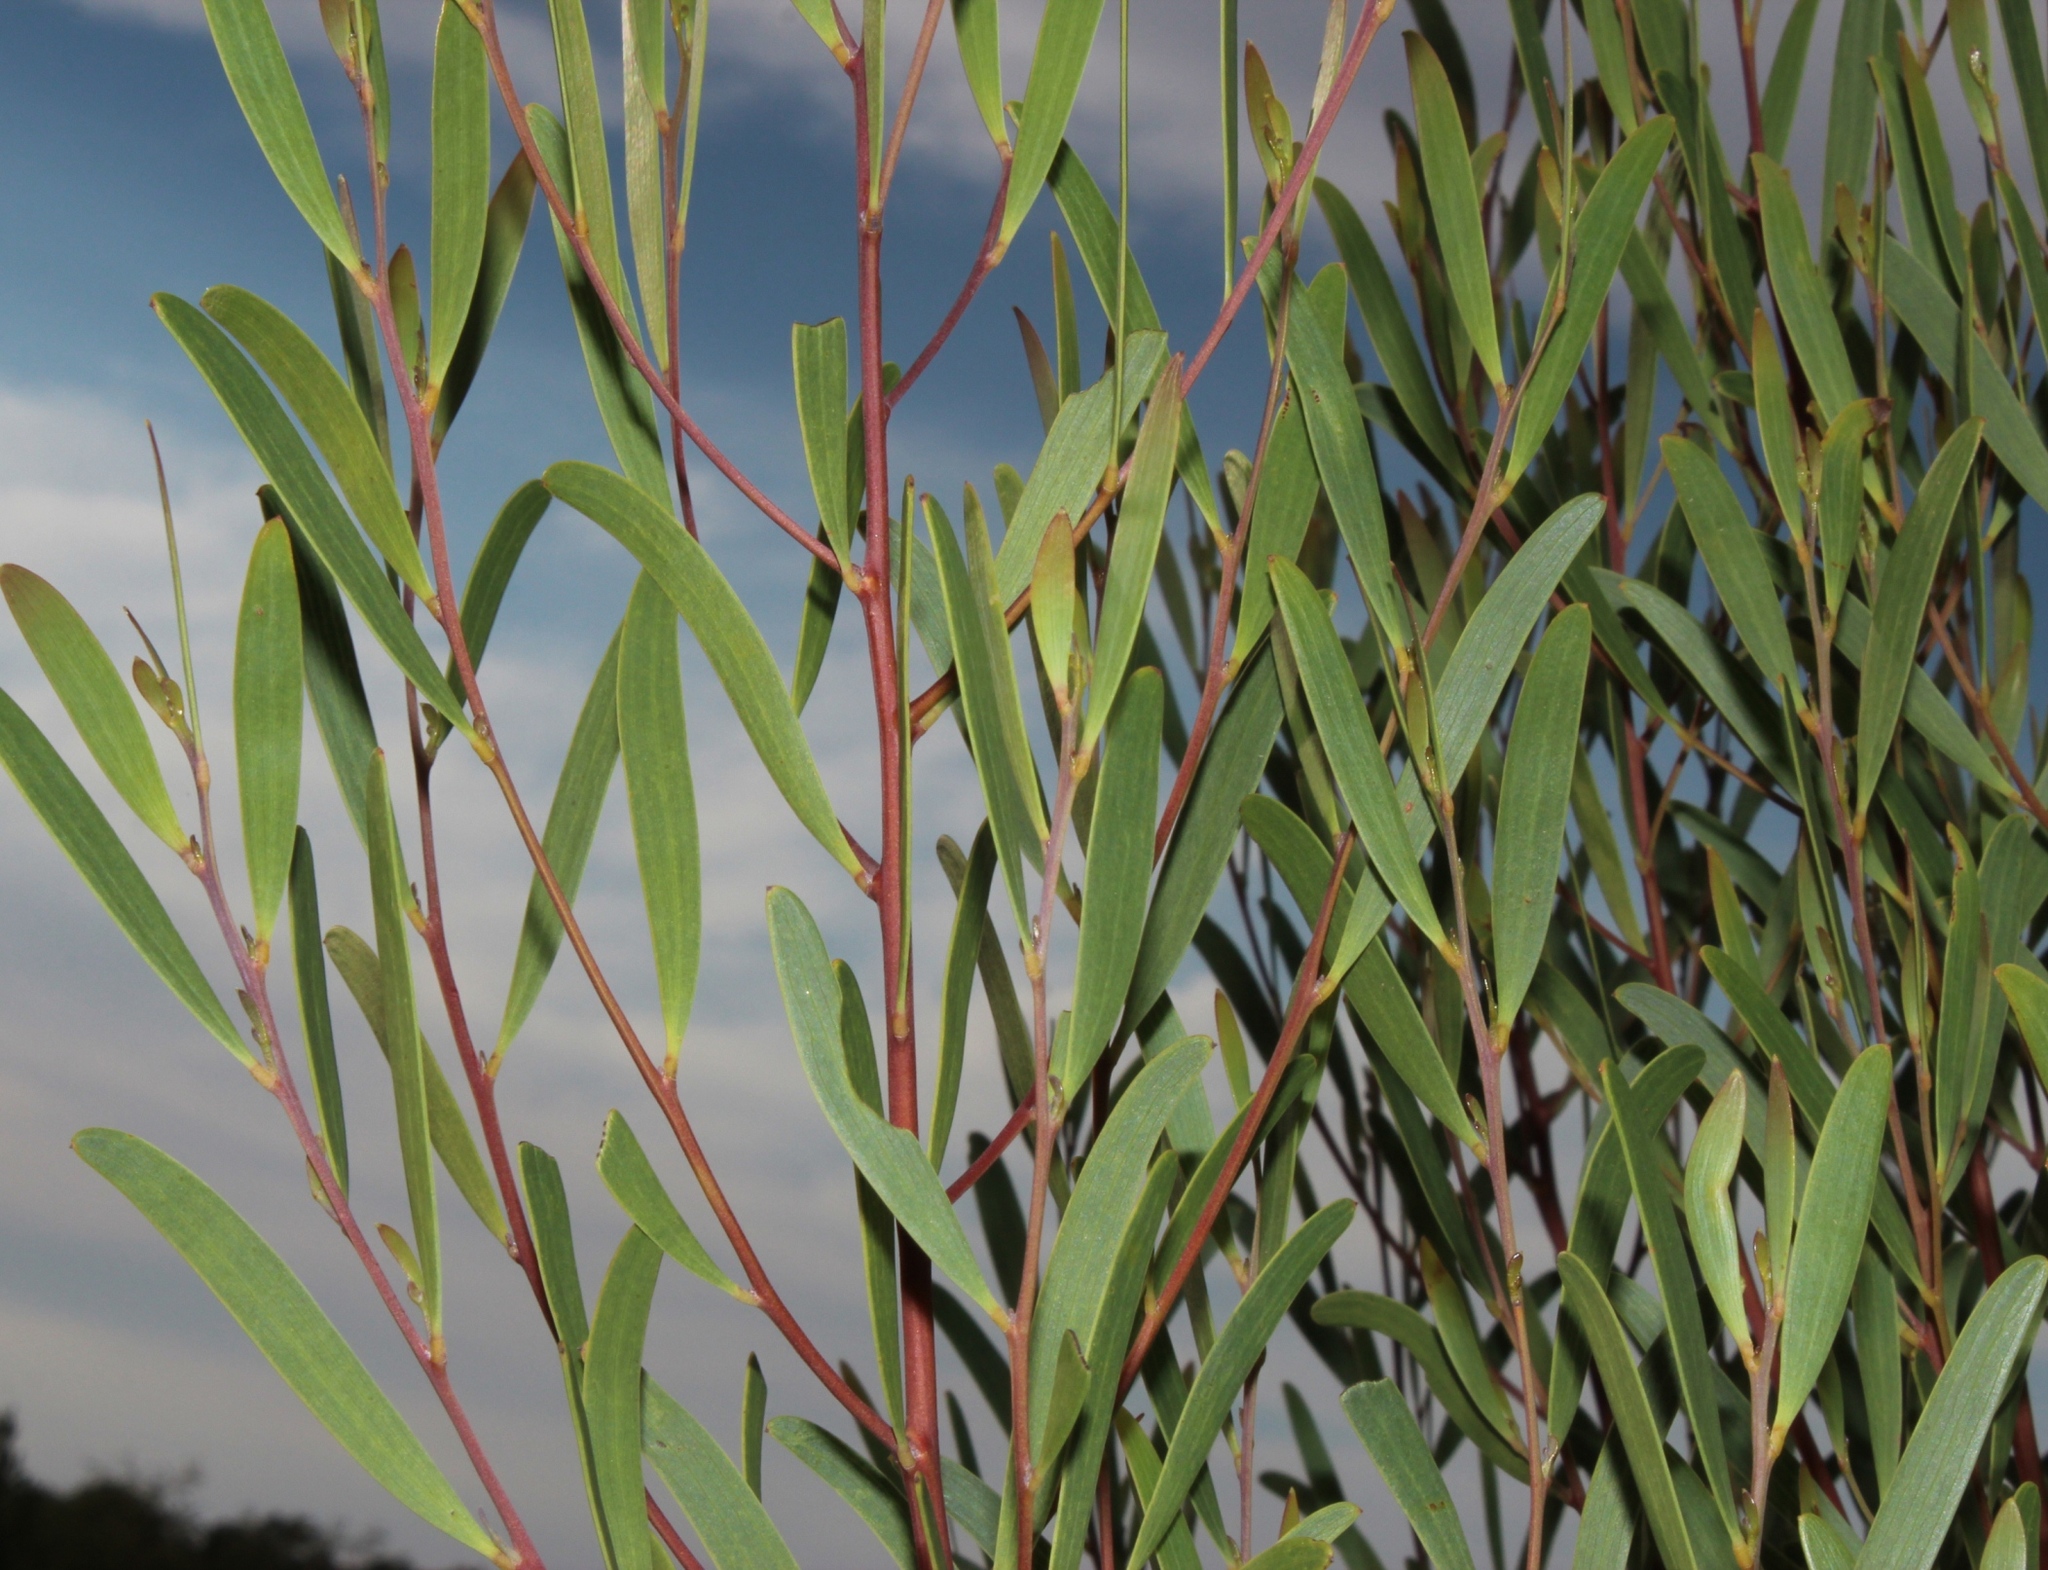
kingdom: Plantae
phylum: Tracheophyta
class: Magnoliopsida
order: Fabales
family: Fabaceae
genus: Acacia
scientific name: Acacia cyclops
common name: Coastal wattle
